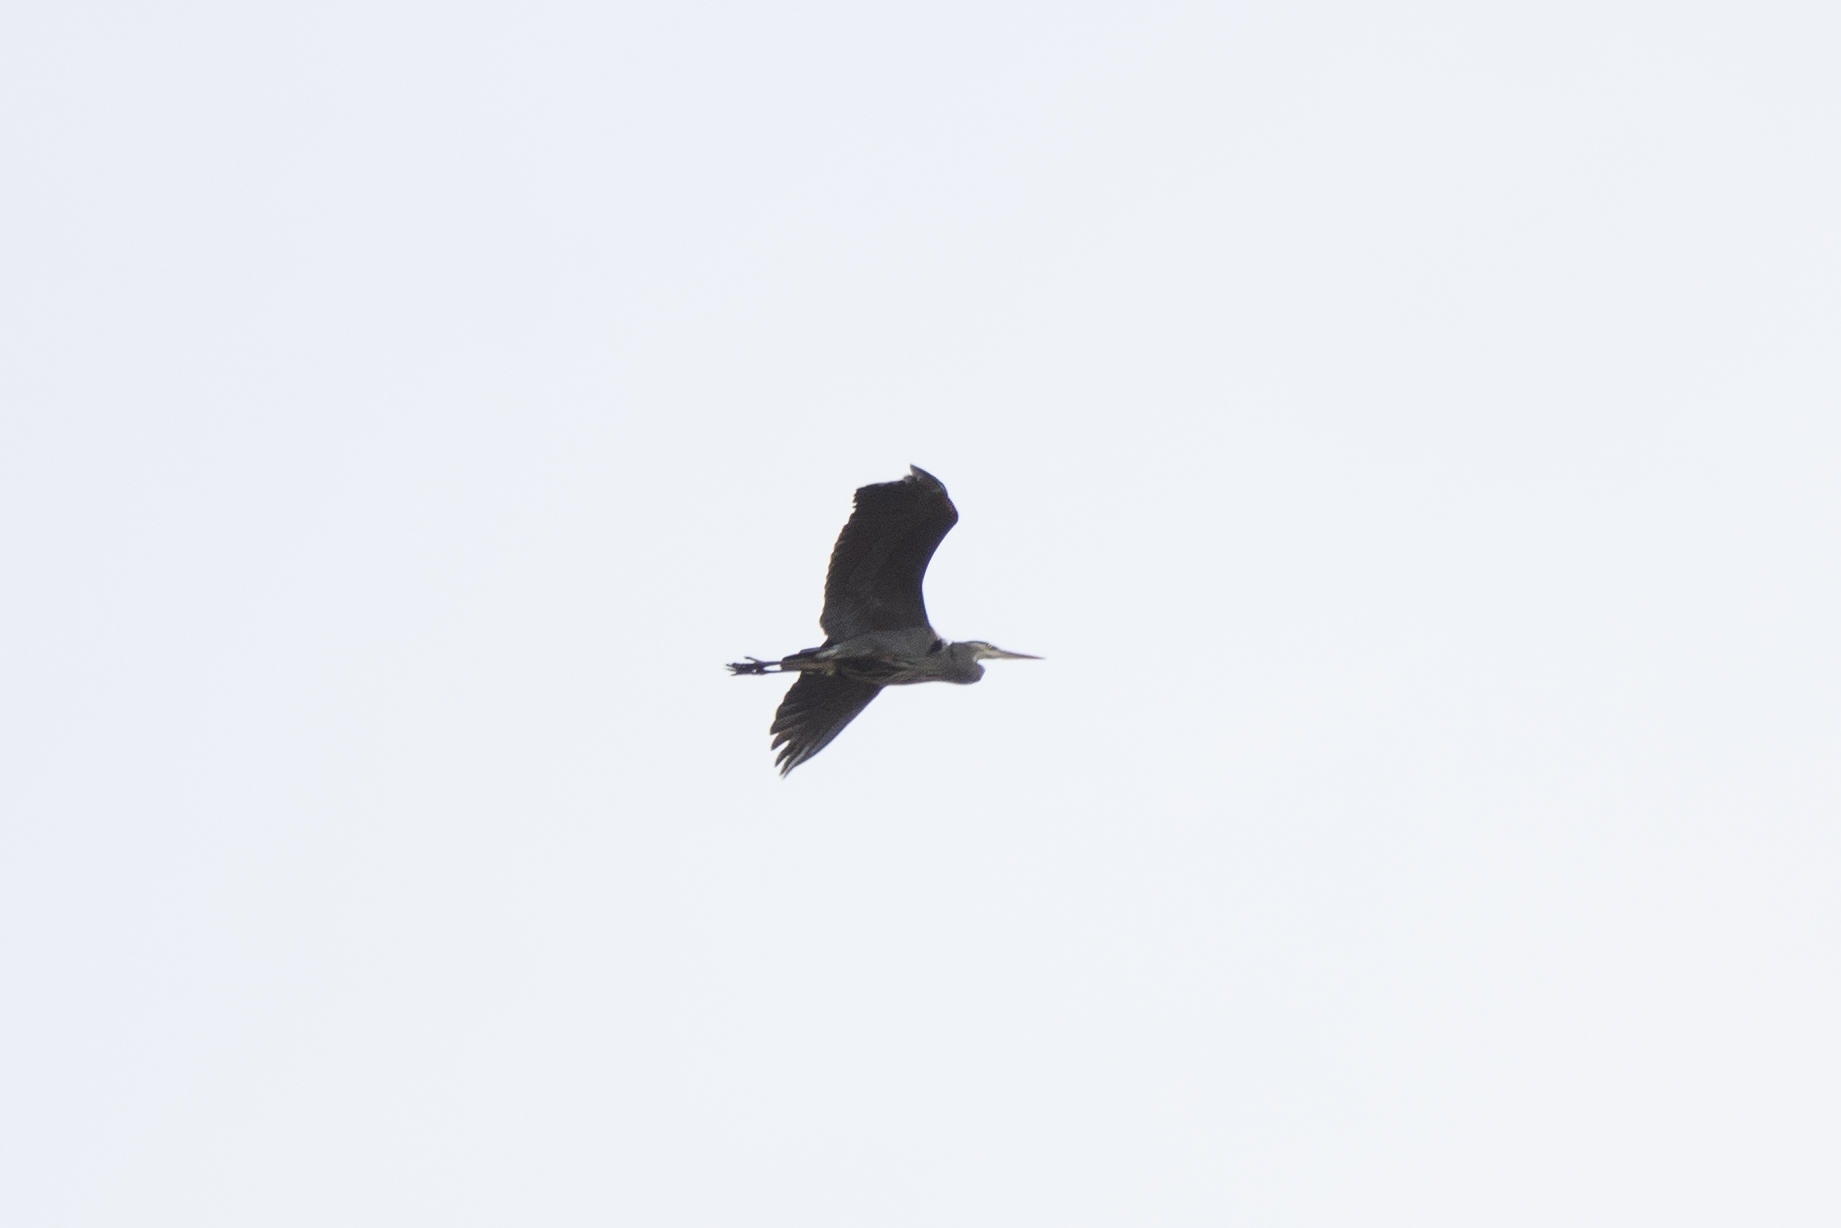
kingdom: Animalia
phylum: Chordata
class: Aves
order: Pelecaniformes
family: Ardeidae
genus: Ardea
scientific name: Ardea herodias
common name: Great blue heron
